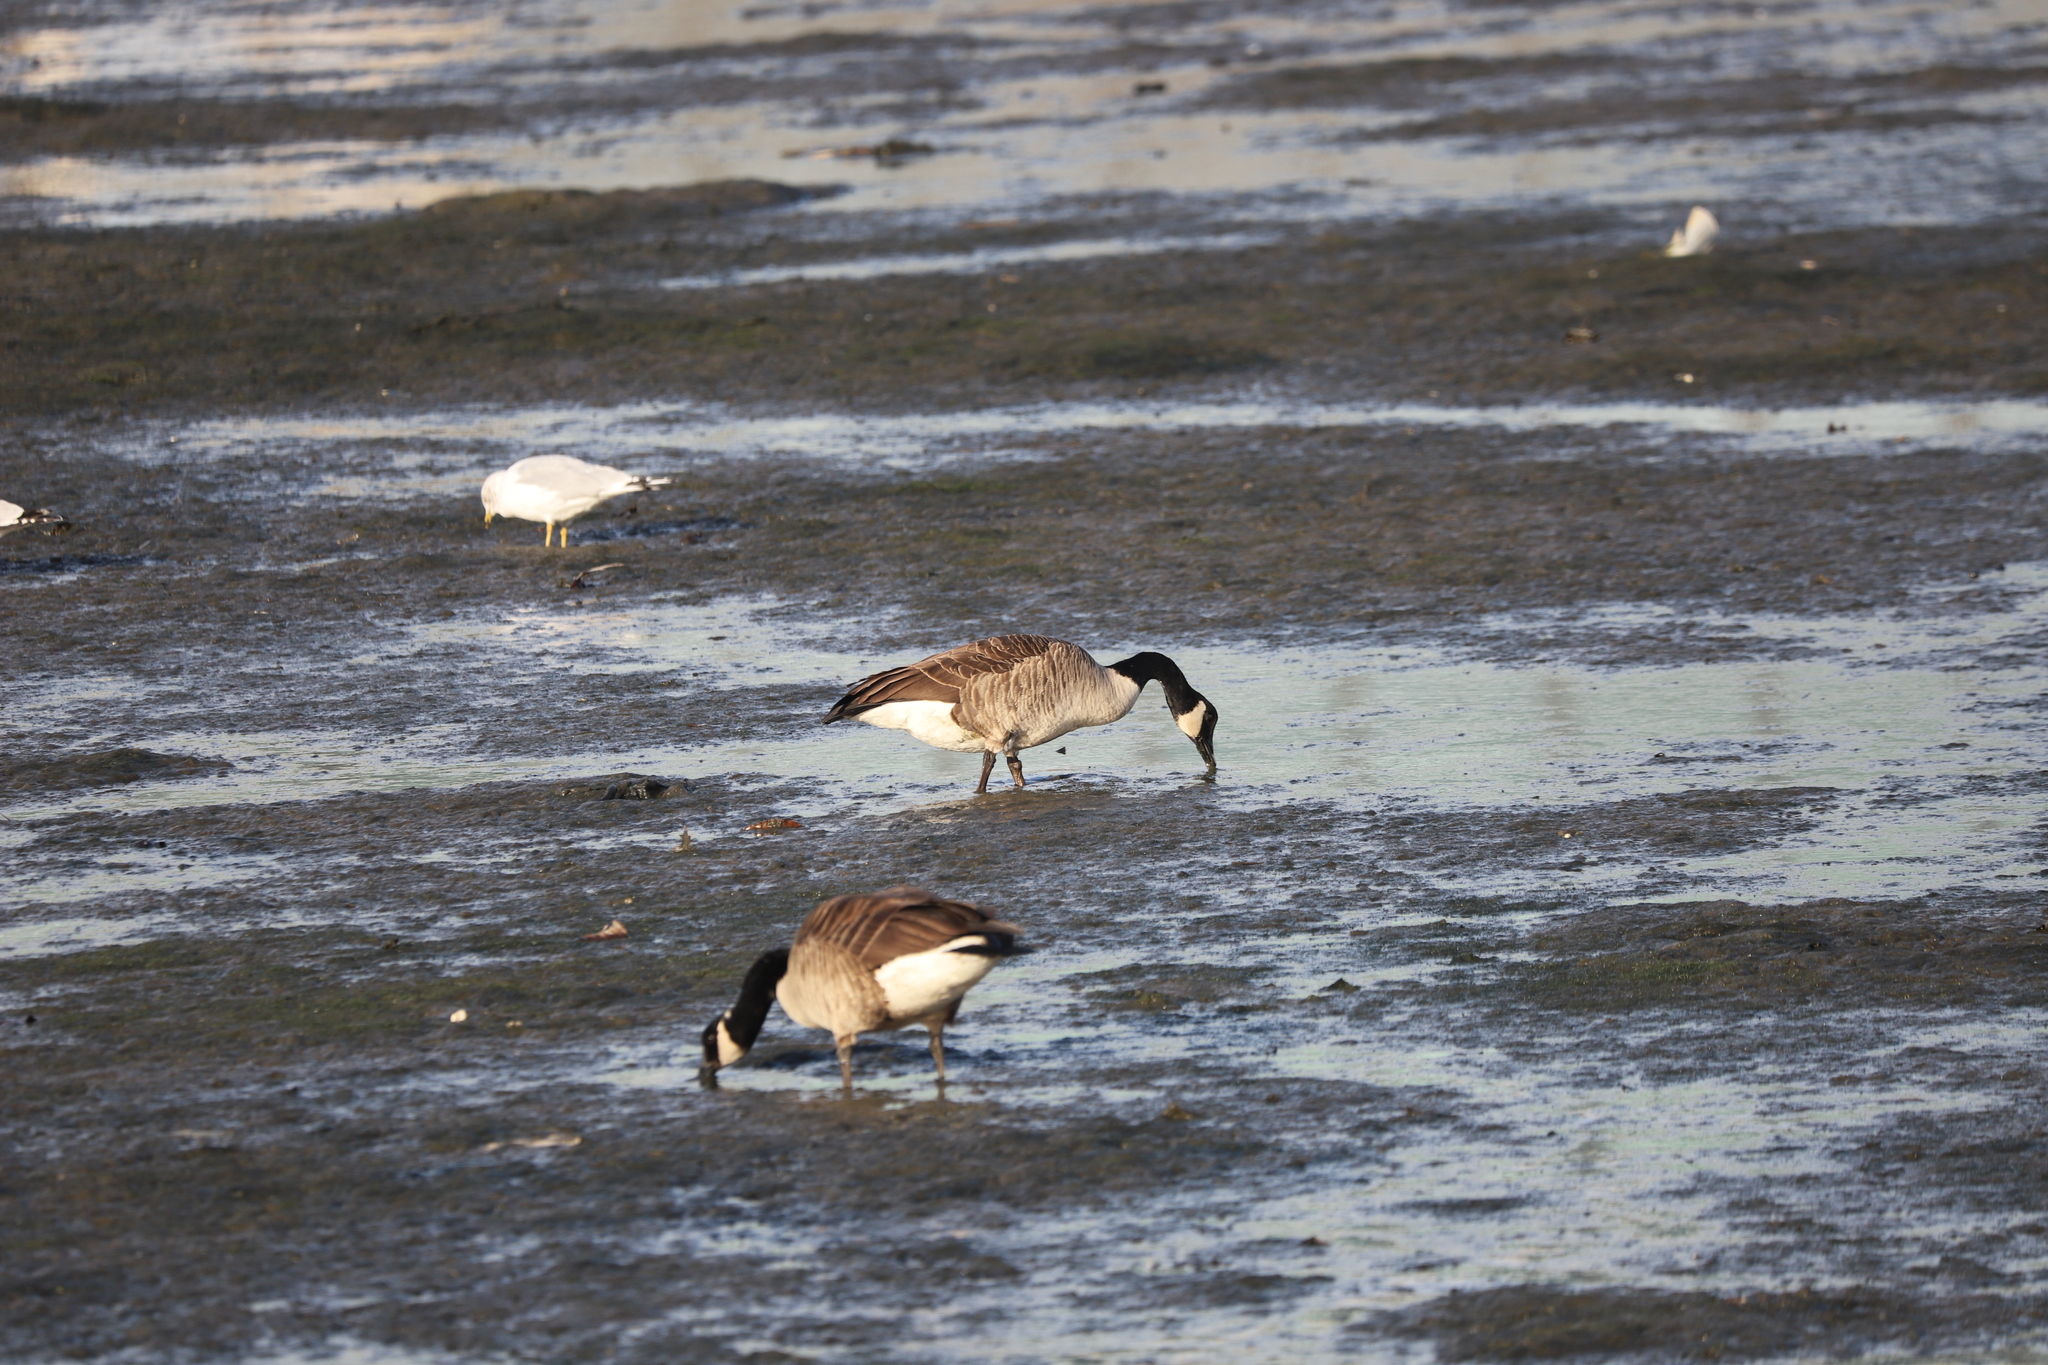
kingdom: Animalia
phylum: Chordata
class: Aves
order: Anseriformes
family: Anatidae
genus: Branta
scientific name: Branta canadensis
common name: Canada goose
